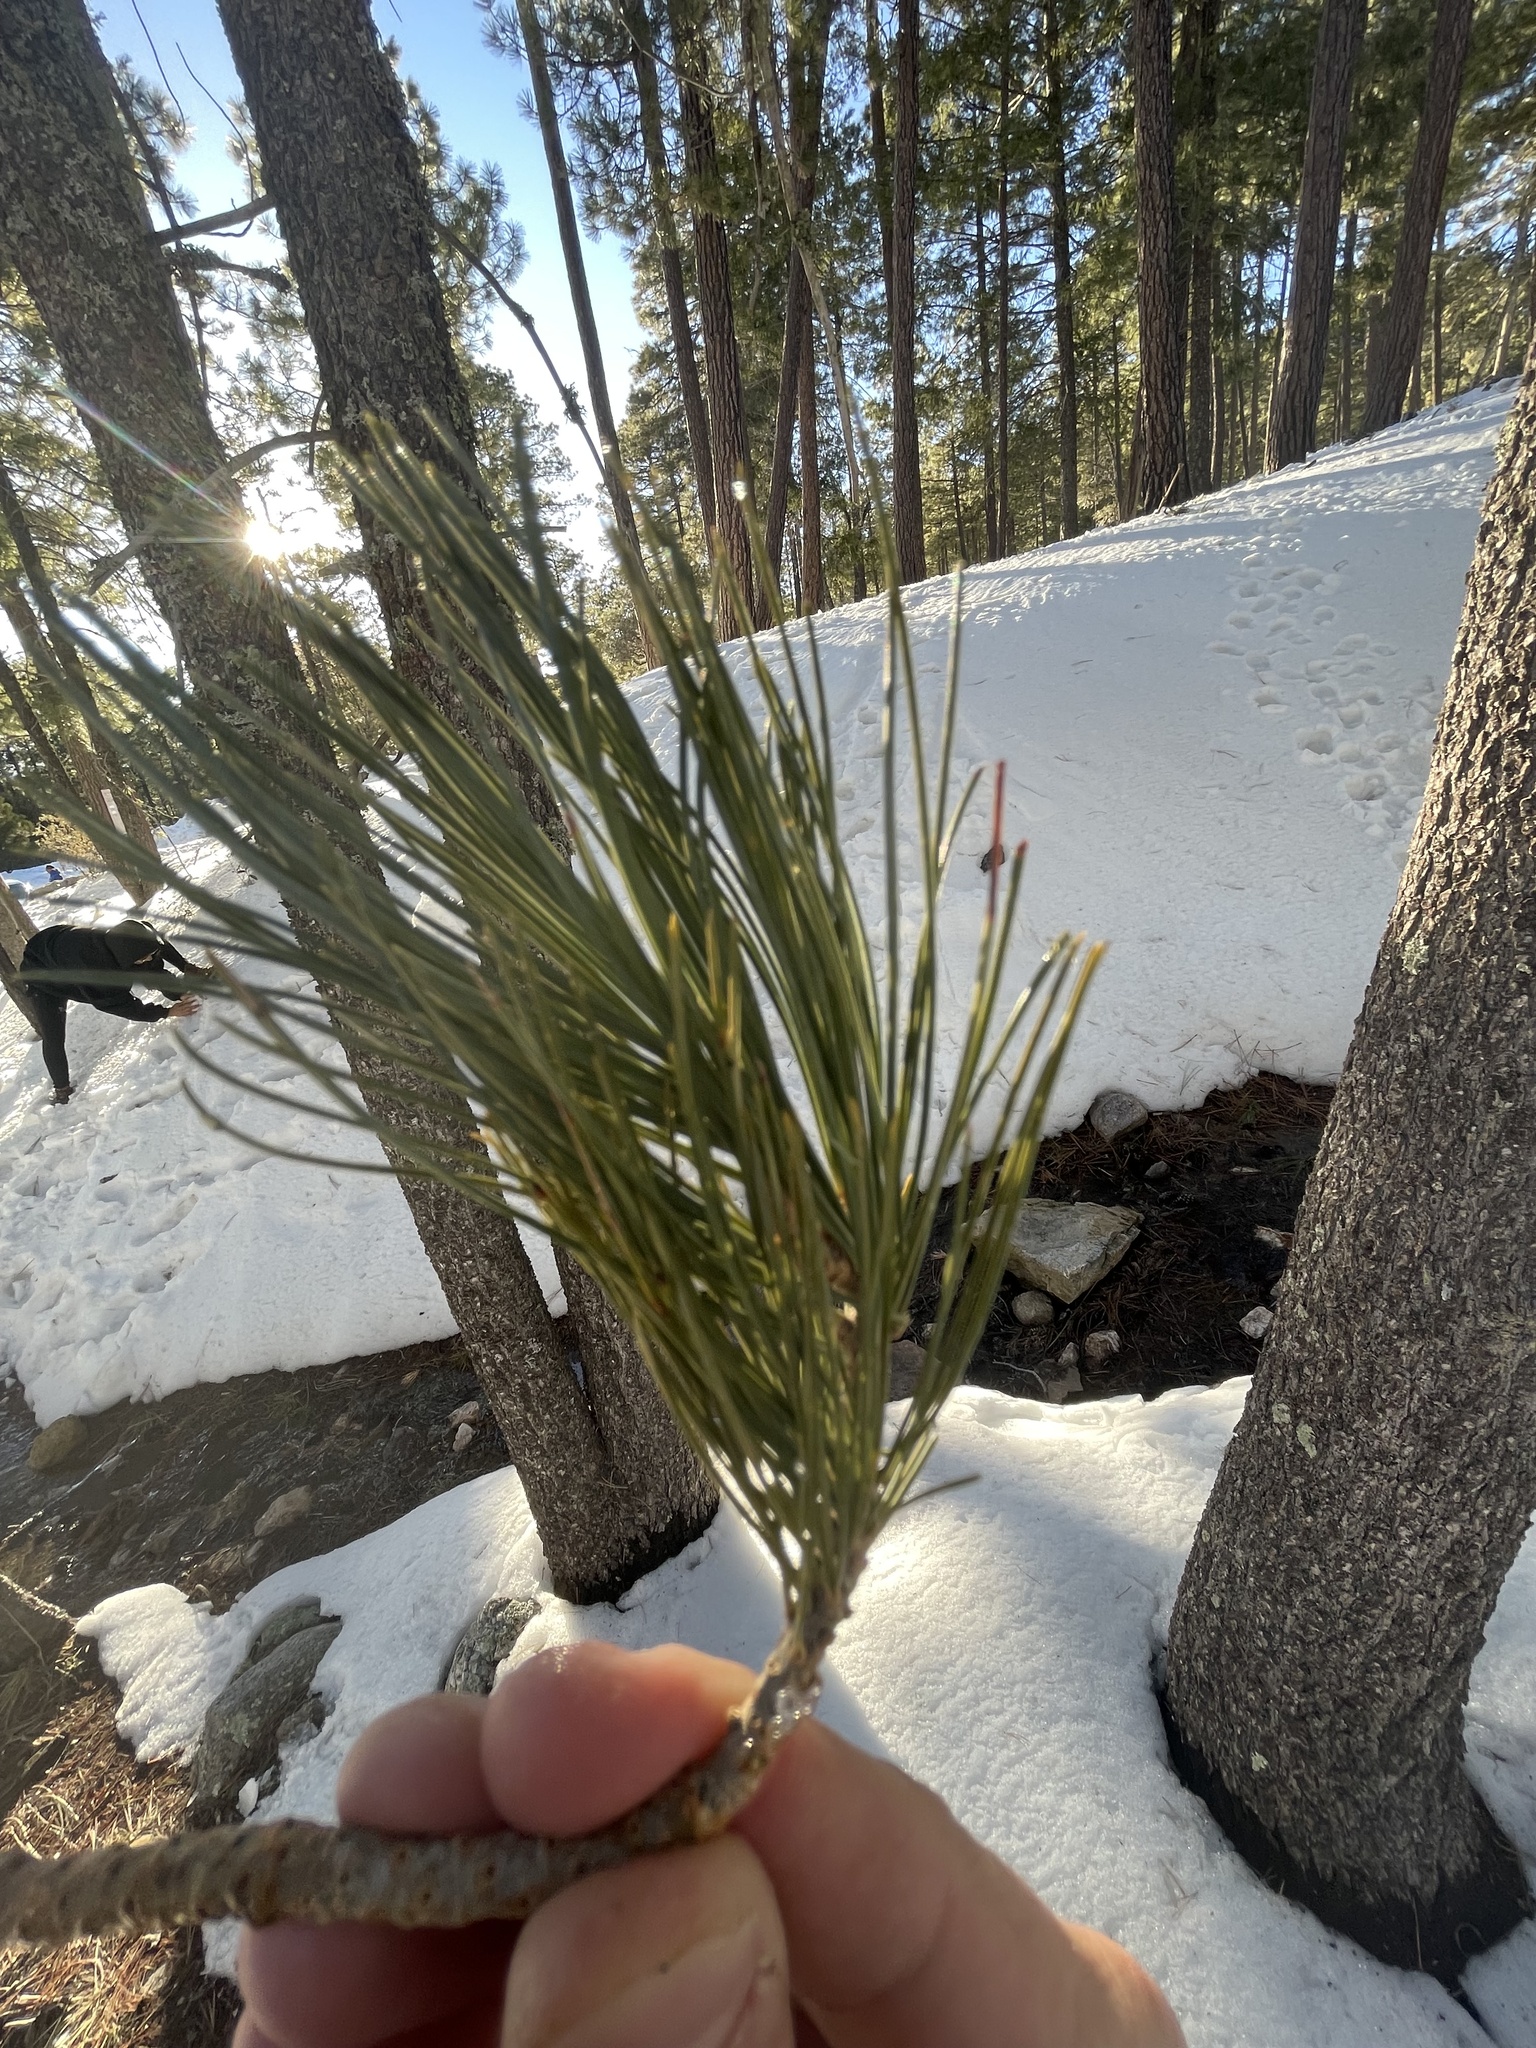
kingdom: Plantae
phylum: Tracheophyta
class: Pinopsida
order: Pinales
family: Pinaceae
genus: Pinus
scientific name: Pinus strobiformis
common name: Southwestern white pine
